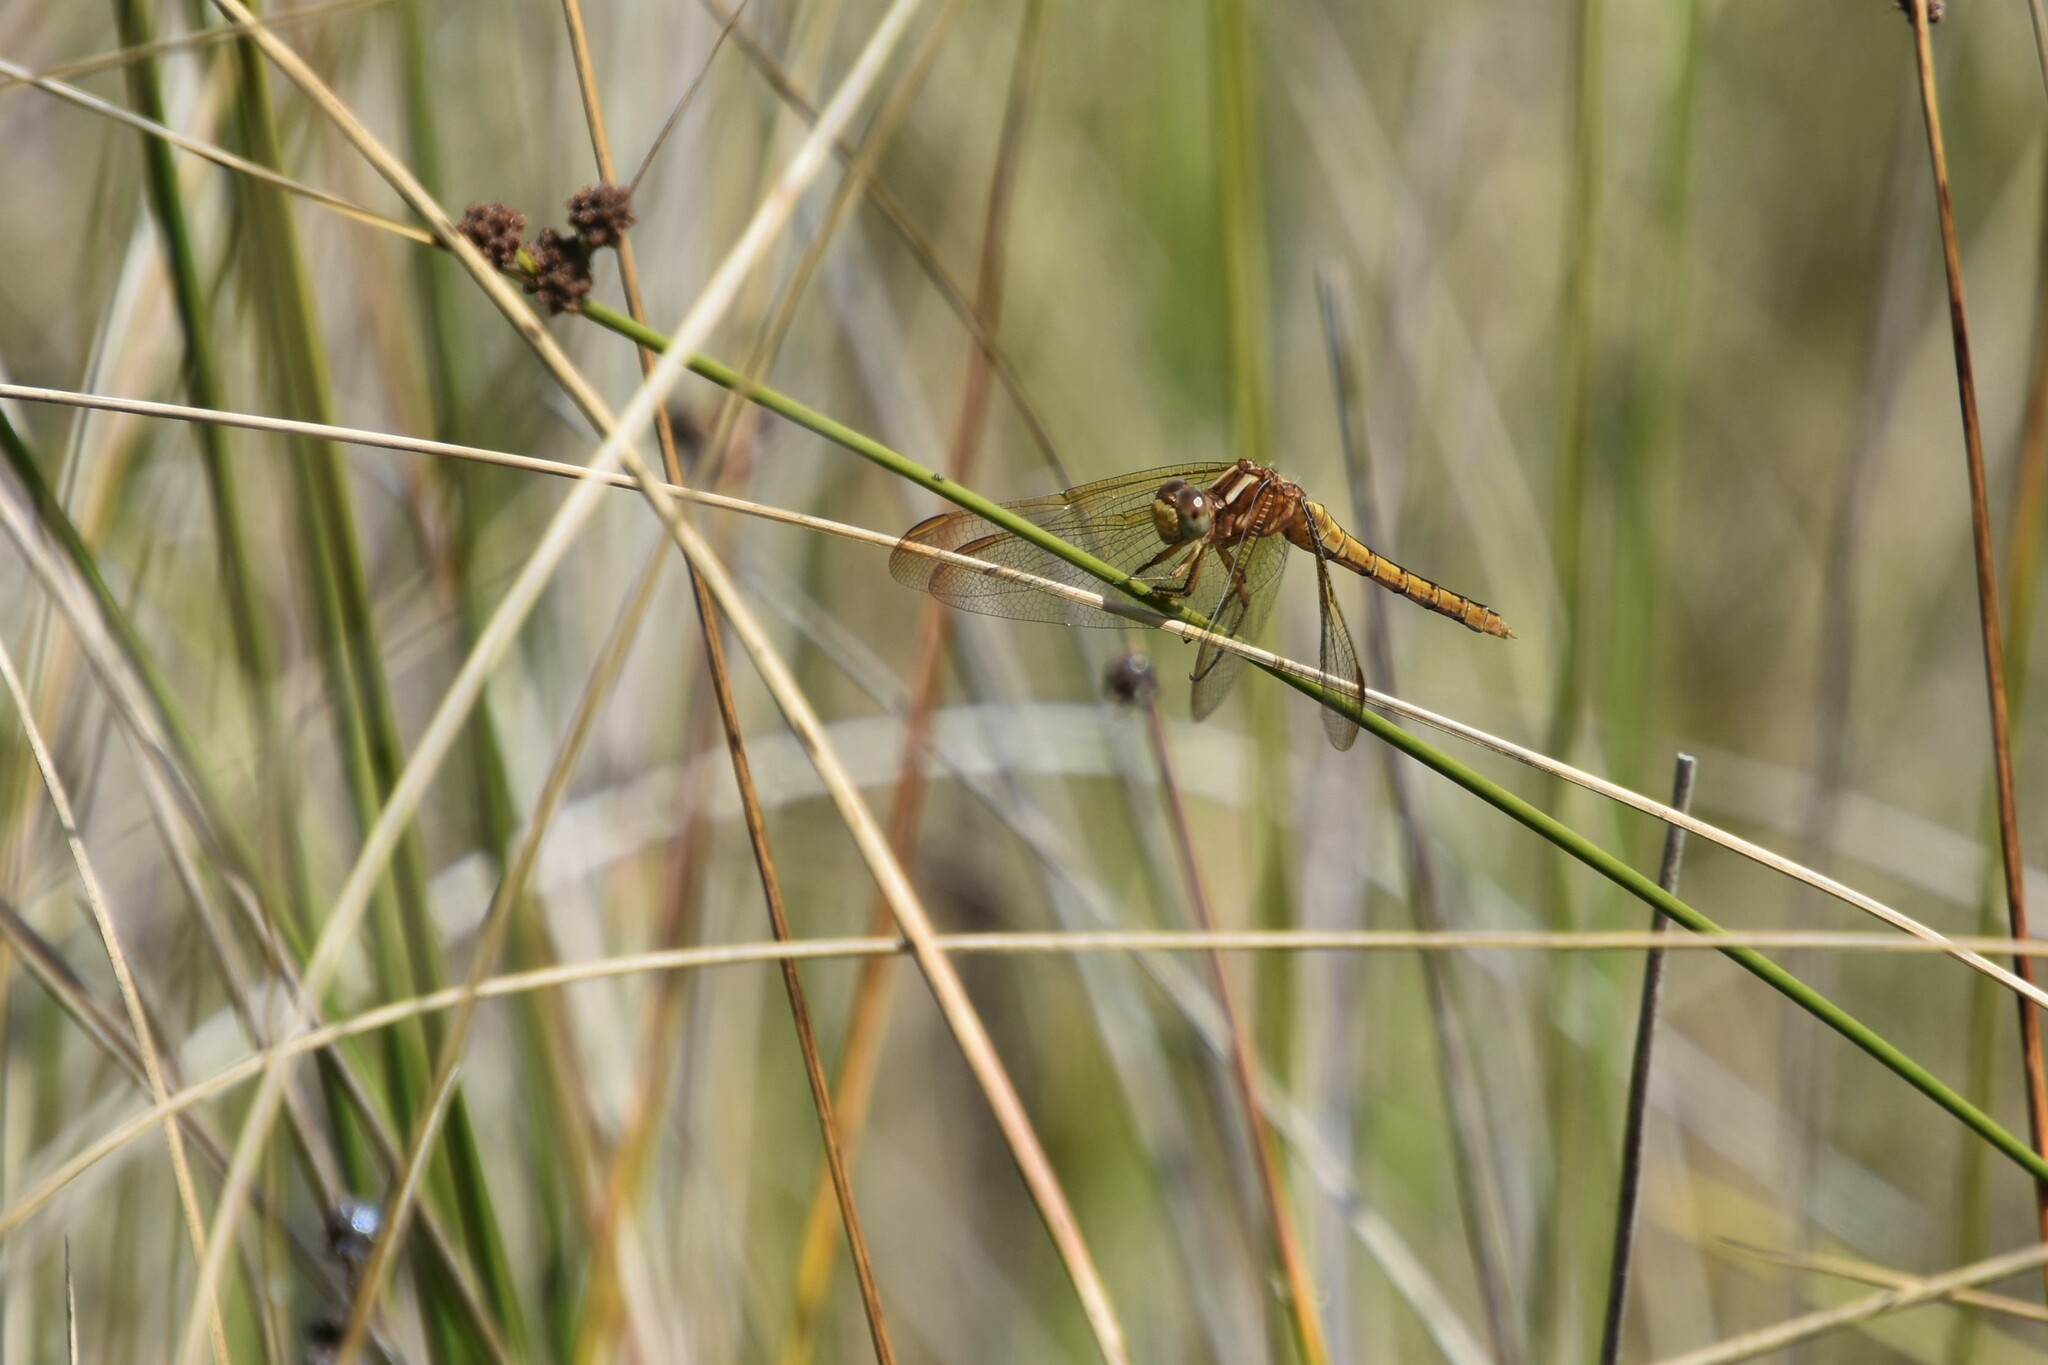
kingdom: Animalia
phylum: Arthropoda
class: Insecta
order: Odonata
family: Libellulidae
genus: Orthetrum
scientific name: Orthetrum coerulescens
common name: Keeled skimmer
